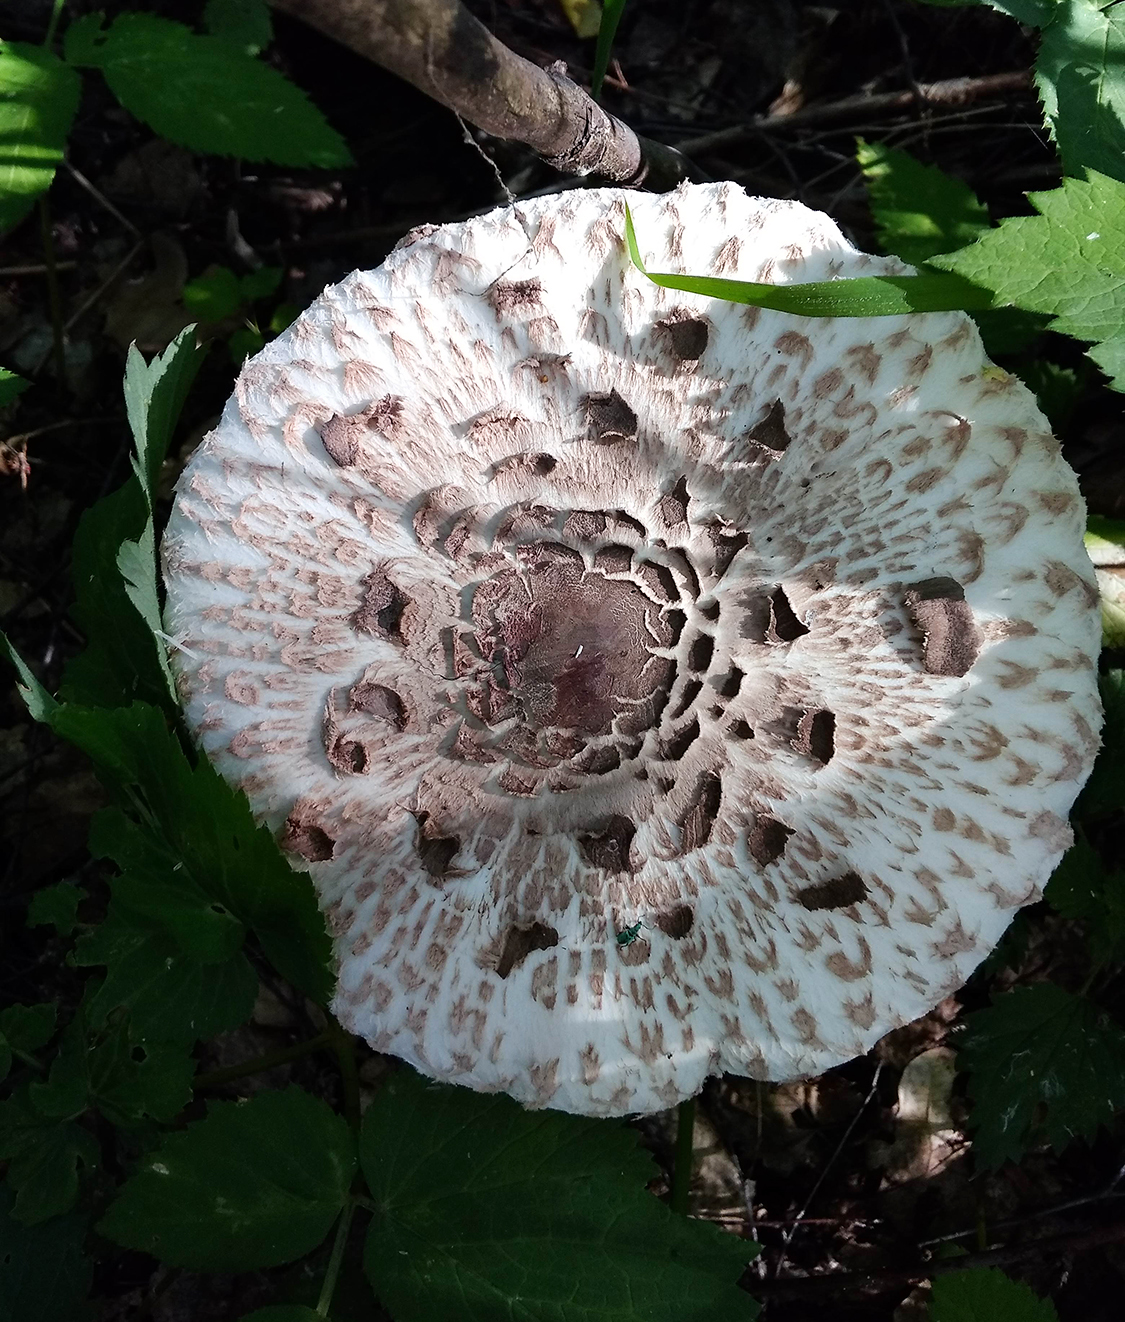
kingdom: Fungi
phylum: Basidiomycota
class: Agaricomycetes
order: Agaricales
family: Agaricaceae
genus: Macrolepiota
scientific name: Macrolepiota procera
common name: Parasol
